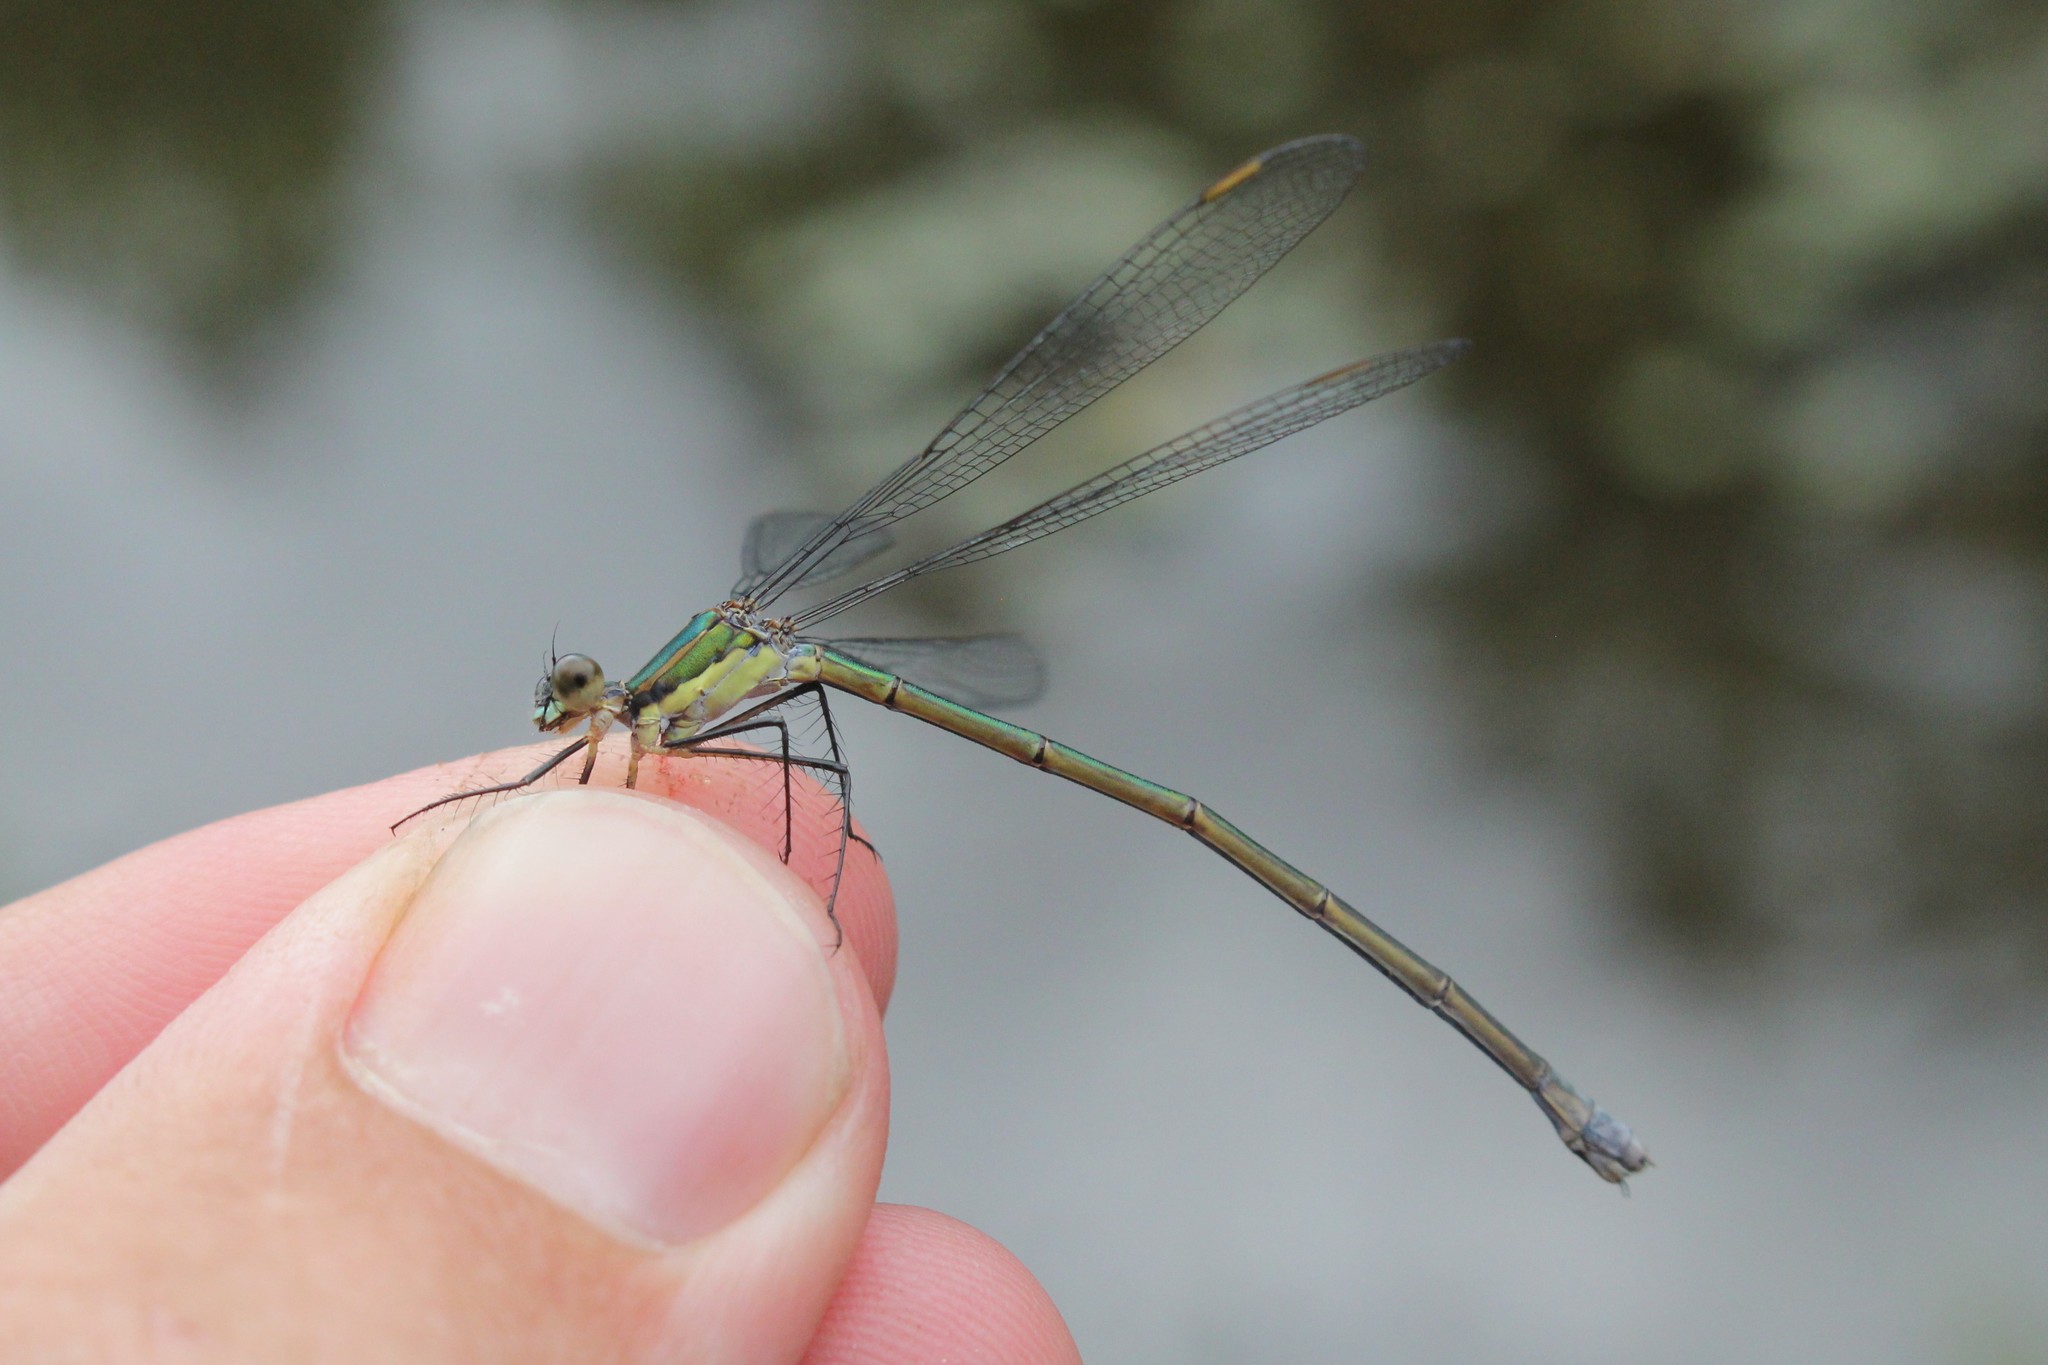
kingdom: Animalia
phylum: Arthropoda
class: Insecta
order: Odonata
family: Lestidae
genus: Lestes
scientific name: Lestes vigilax
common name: Swamp spreadwing
